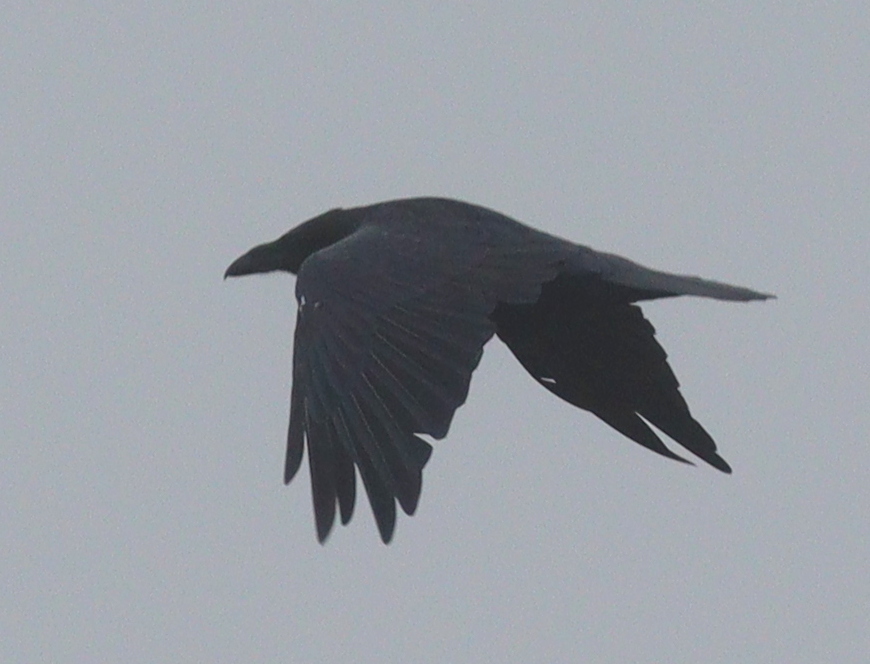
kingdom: Animalia
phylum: Chordata
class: Aves
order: Passeriformes
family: Corvidae
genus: Corvus
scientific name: Corvus corax
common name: Common raven
